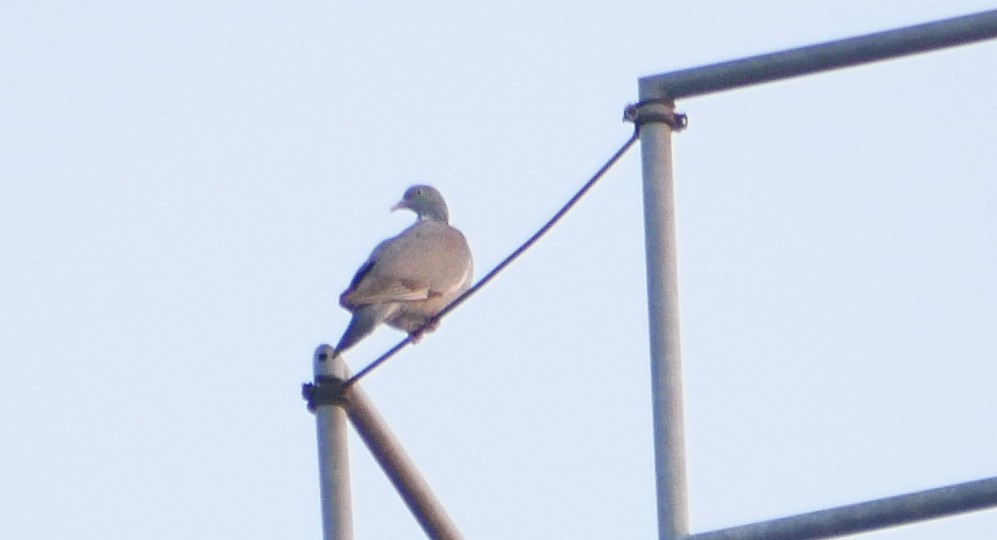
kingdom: Animalia
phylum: Chordata
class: Aves
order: Columbiformes
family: Columbidae
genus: Columba
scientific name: Columba palumbus
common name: Common wood pigeon
